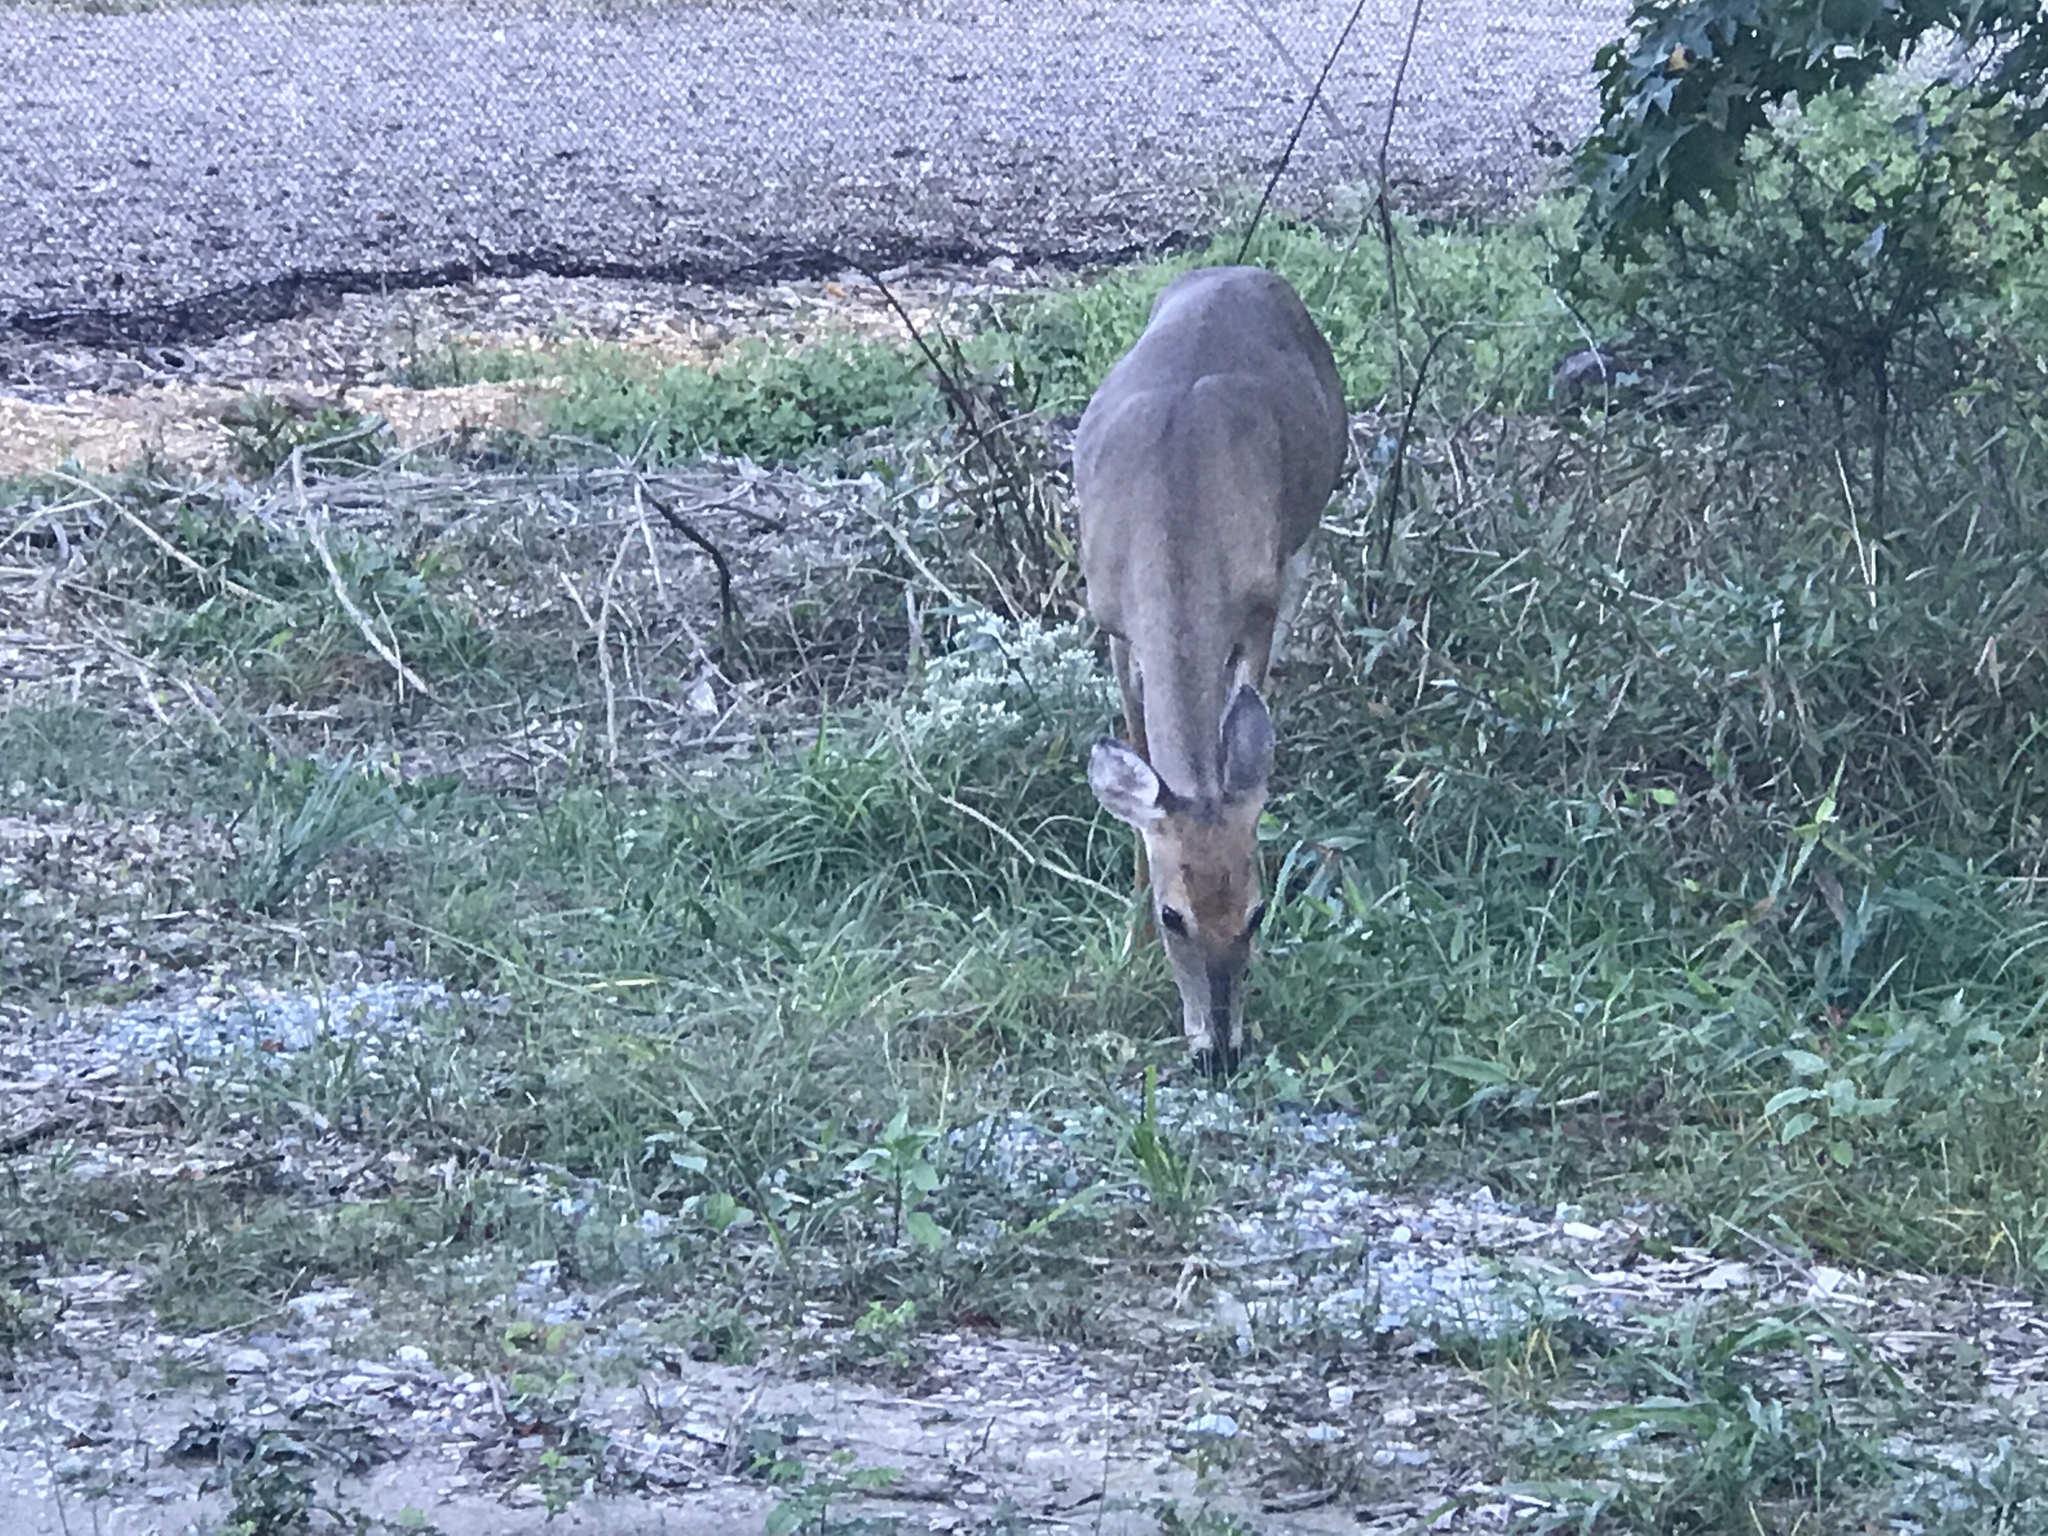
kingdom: Animalia
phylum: Chordata
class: Mammalia
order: Artiodactyla
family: Cervidae
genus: Odocoileus
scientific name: Odocoileus virginianus
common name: White-tailed deer
